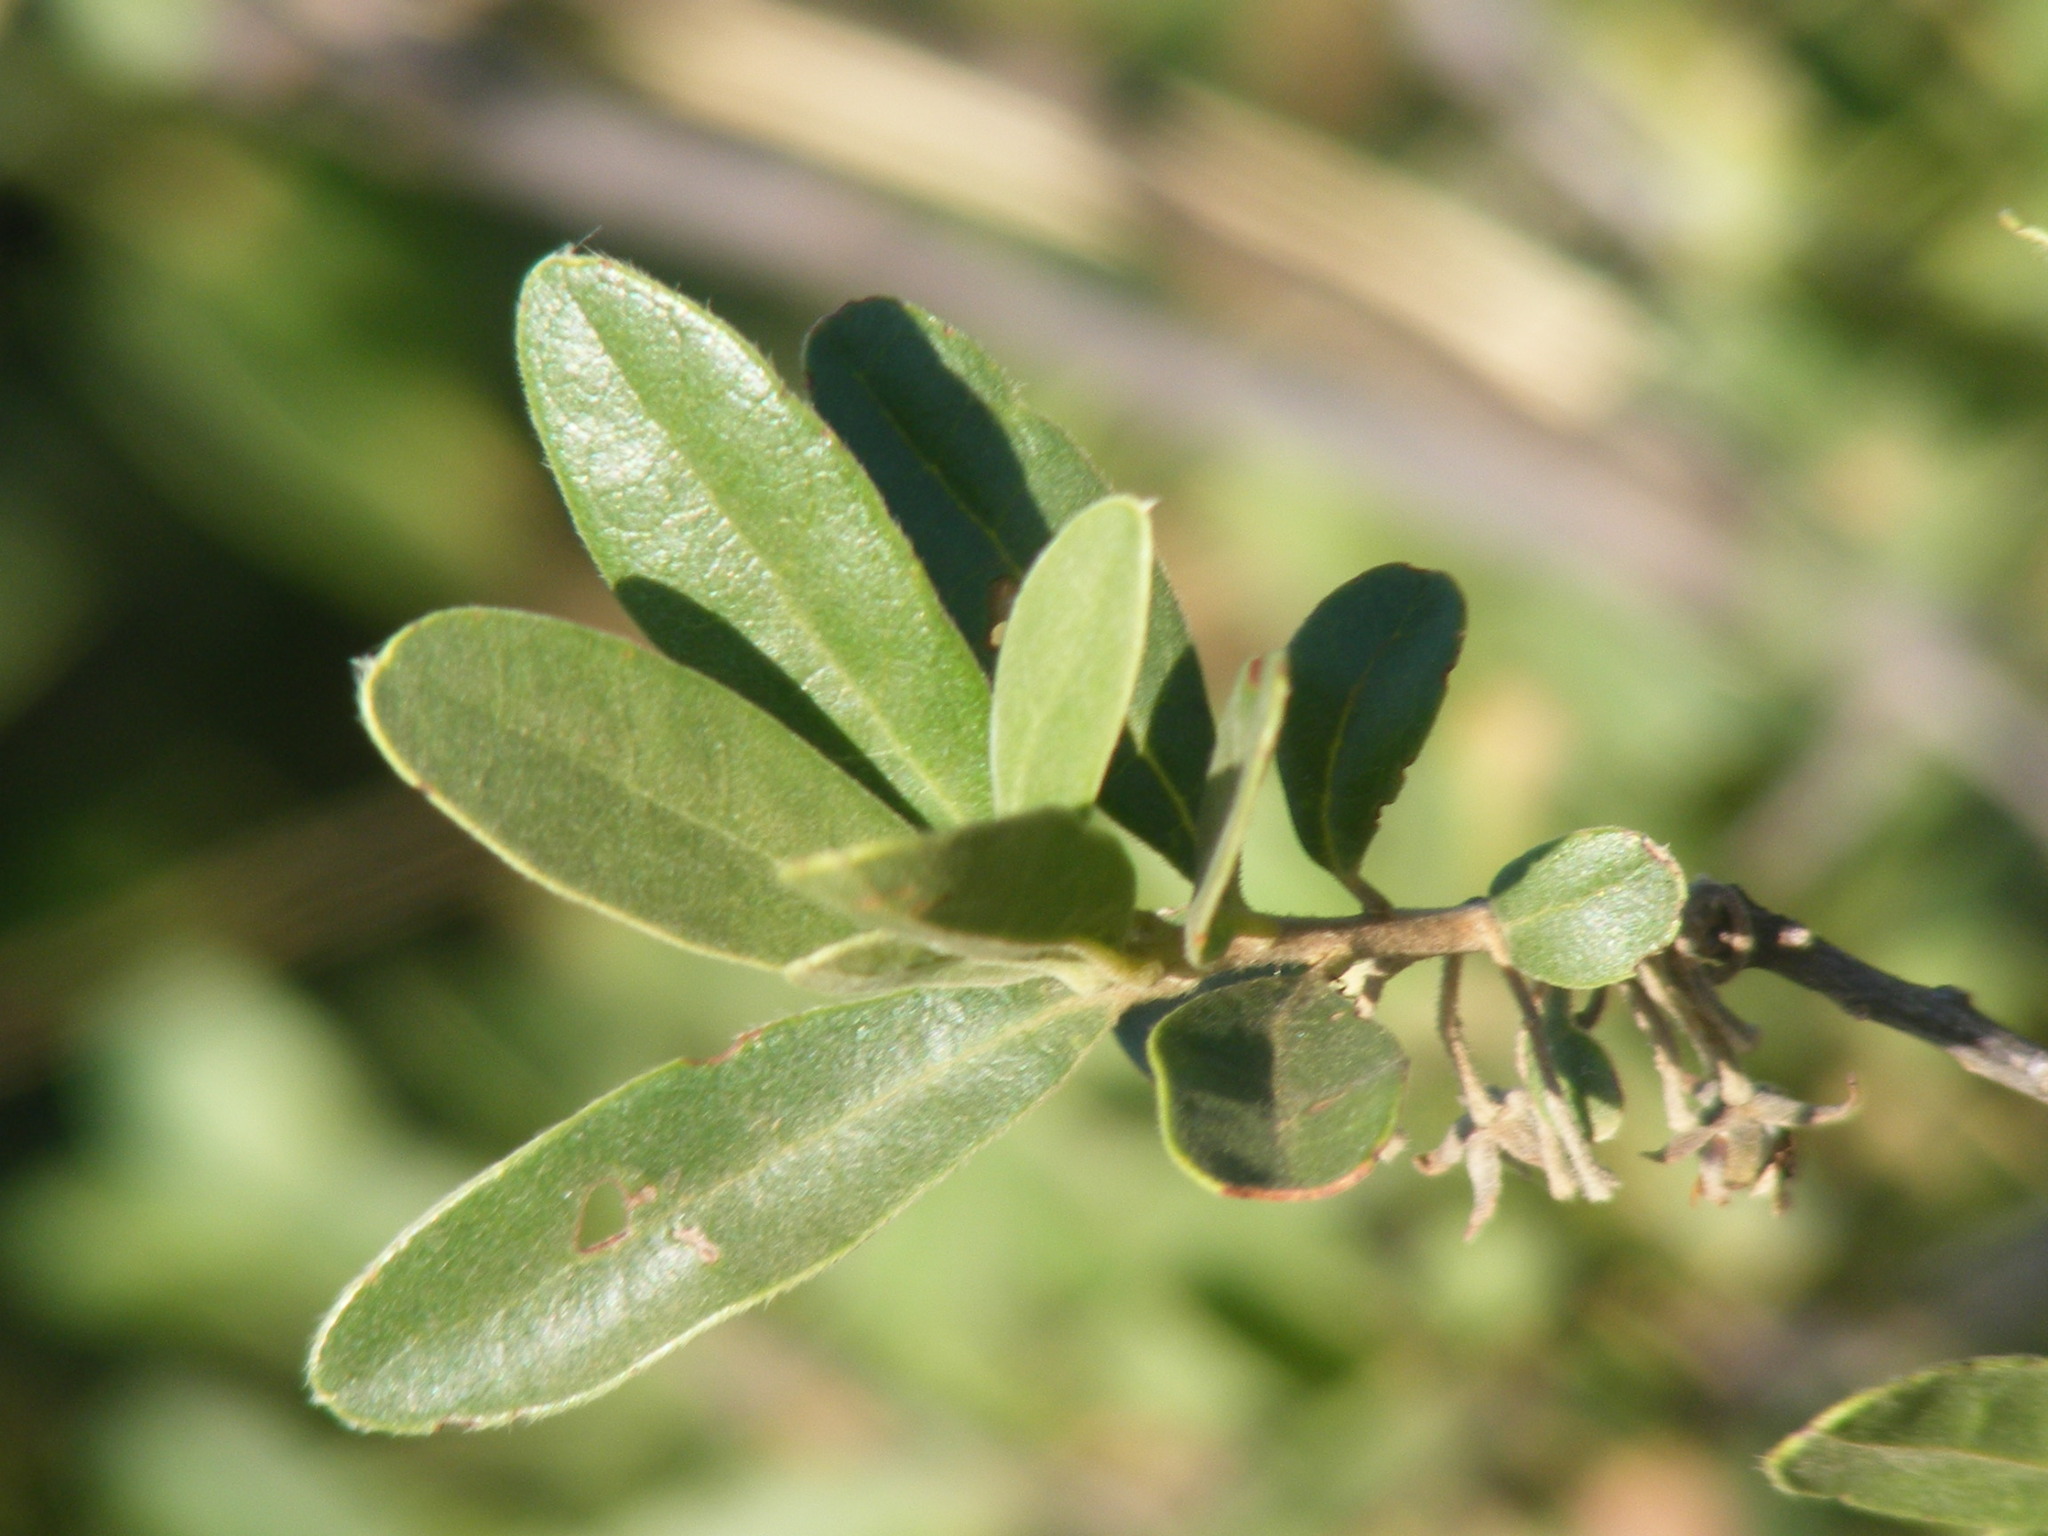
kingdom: Plantae
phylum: Tracheophyta
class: Magnoliopsida
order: Ericales
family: Ebenaceae
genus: Diospyros
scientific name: Diospyros lycioides
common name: Red star apple
